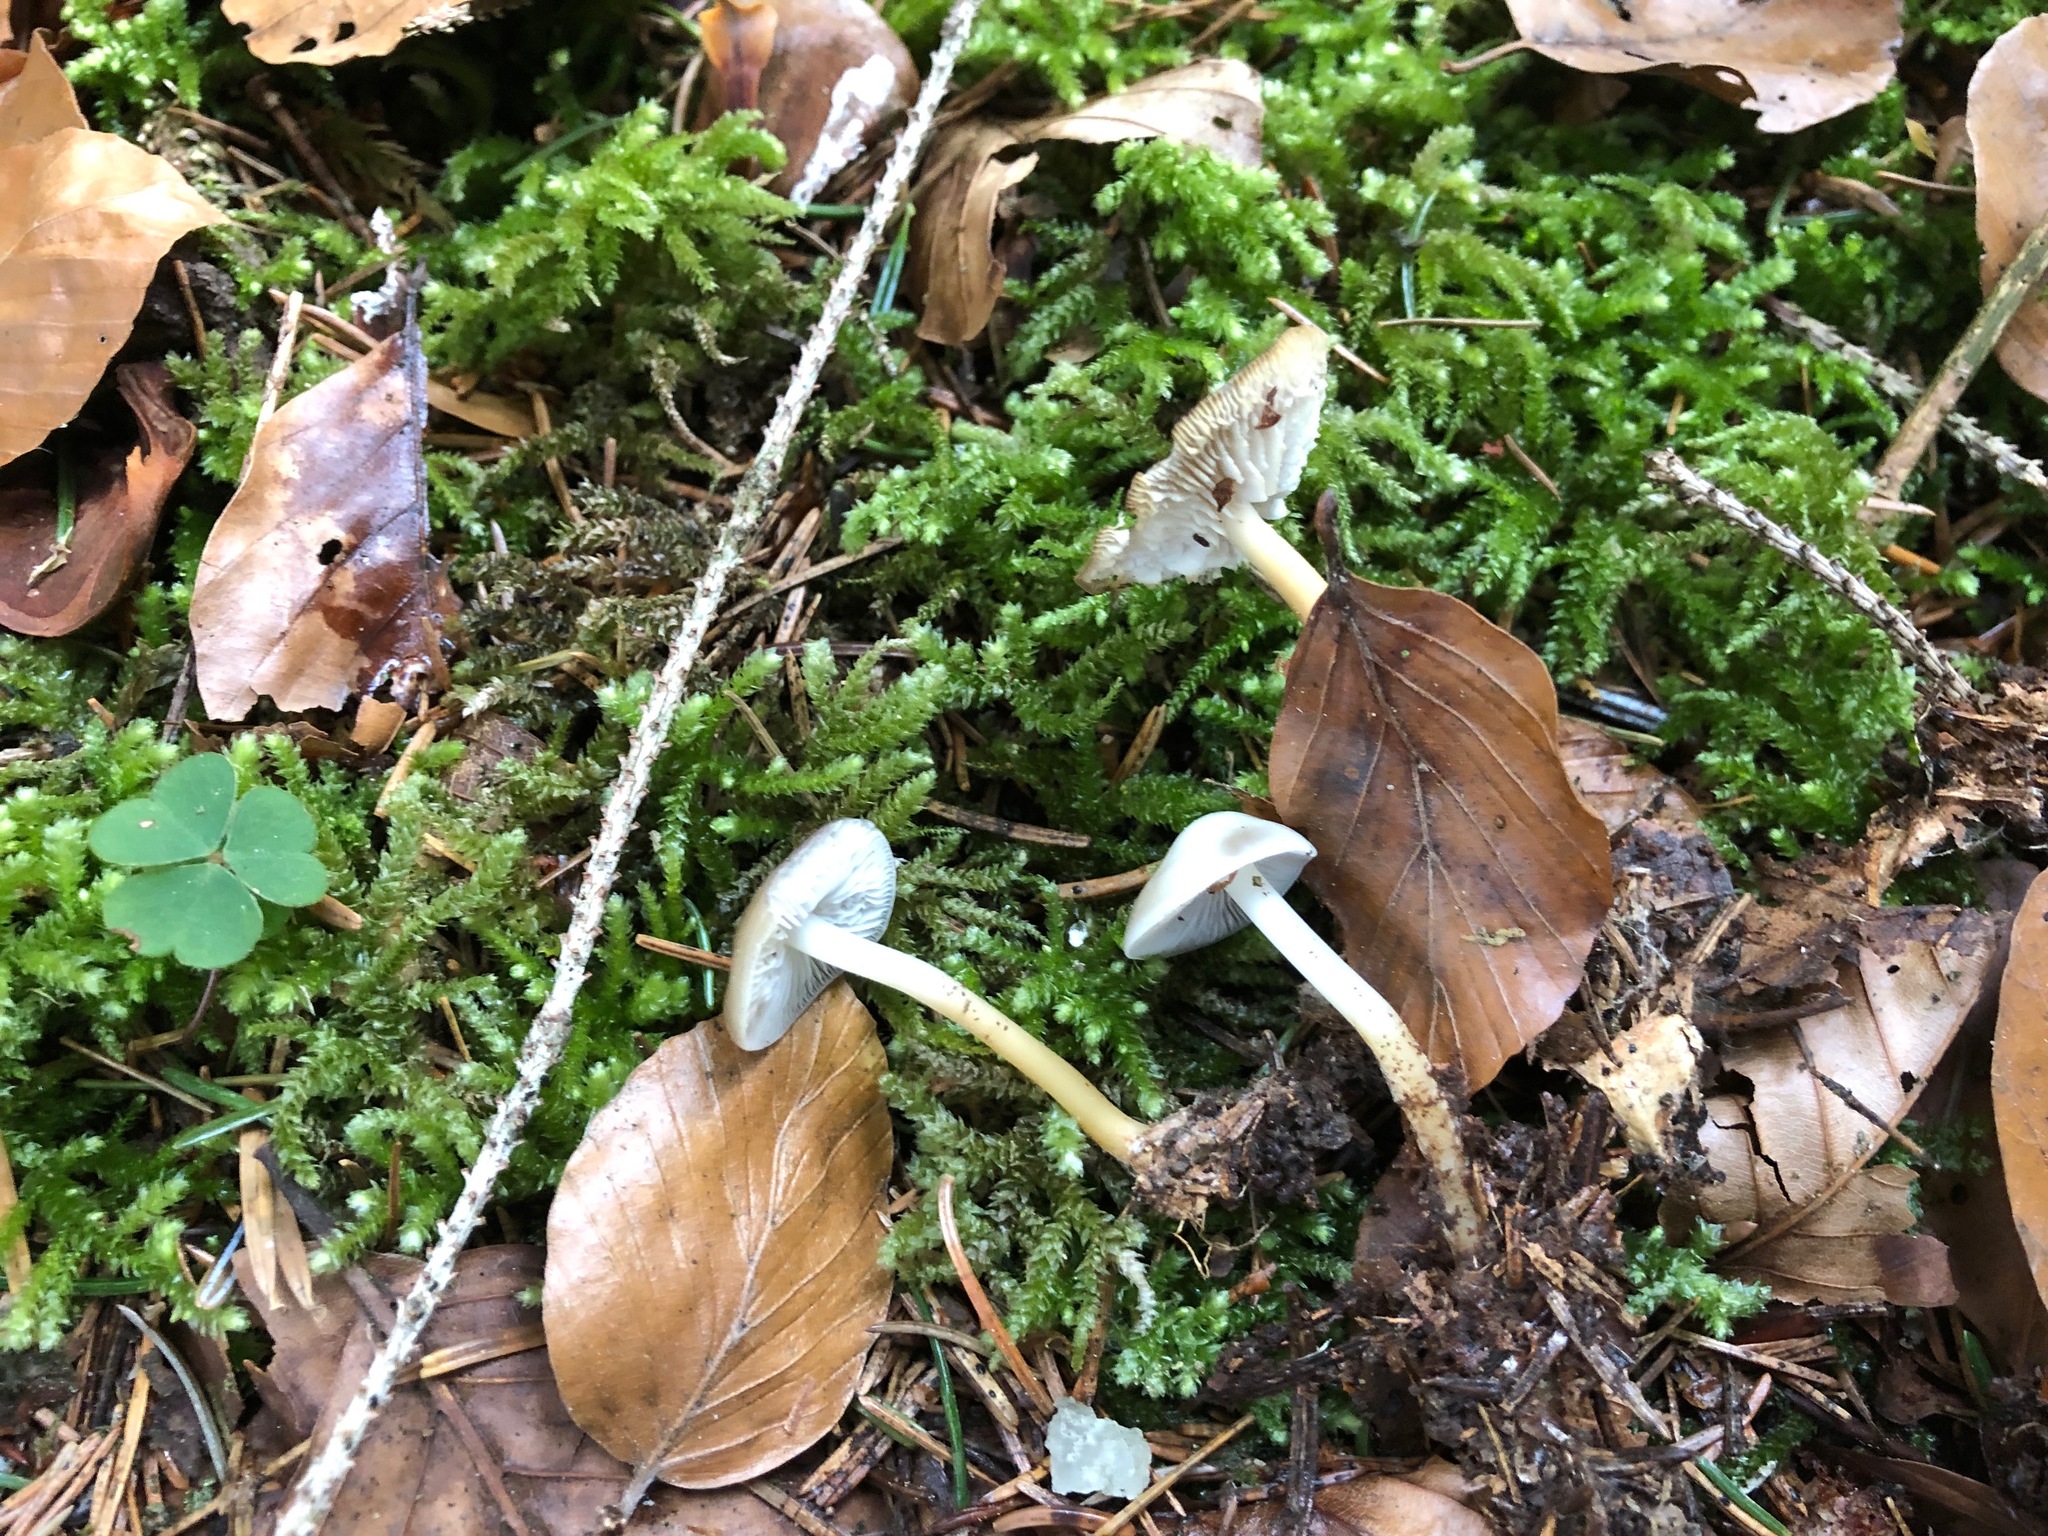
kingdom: Fungi
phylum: Basidiomycota
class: Agaricomycetes
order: Agaricales
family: Physalacriaceae
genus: Strobilurus
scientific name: Strobilurus esculentus
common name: Sprucecone cap
